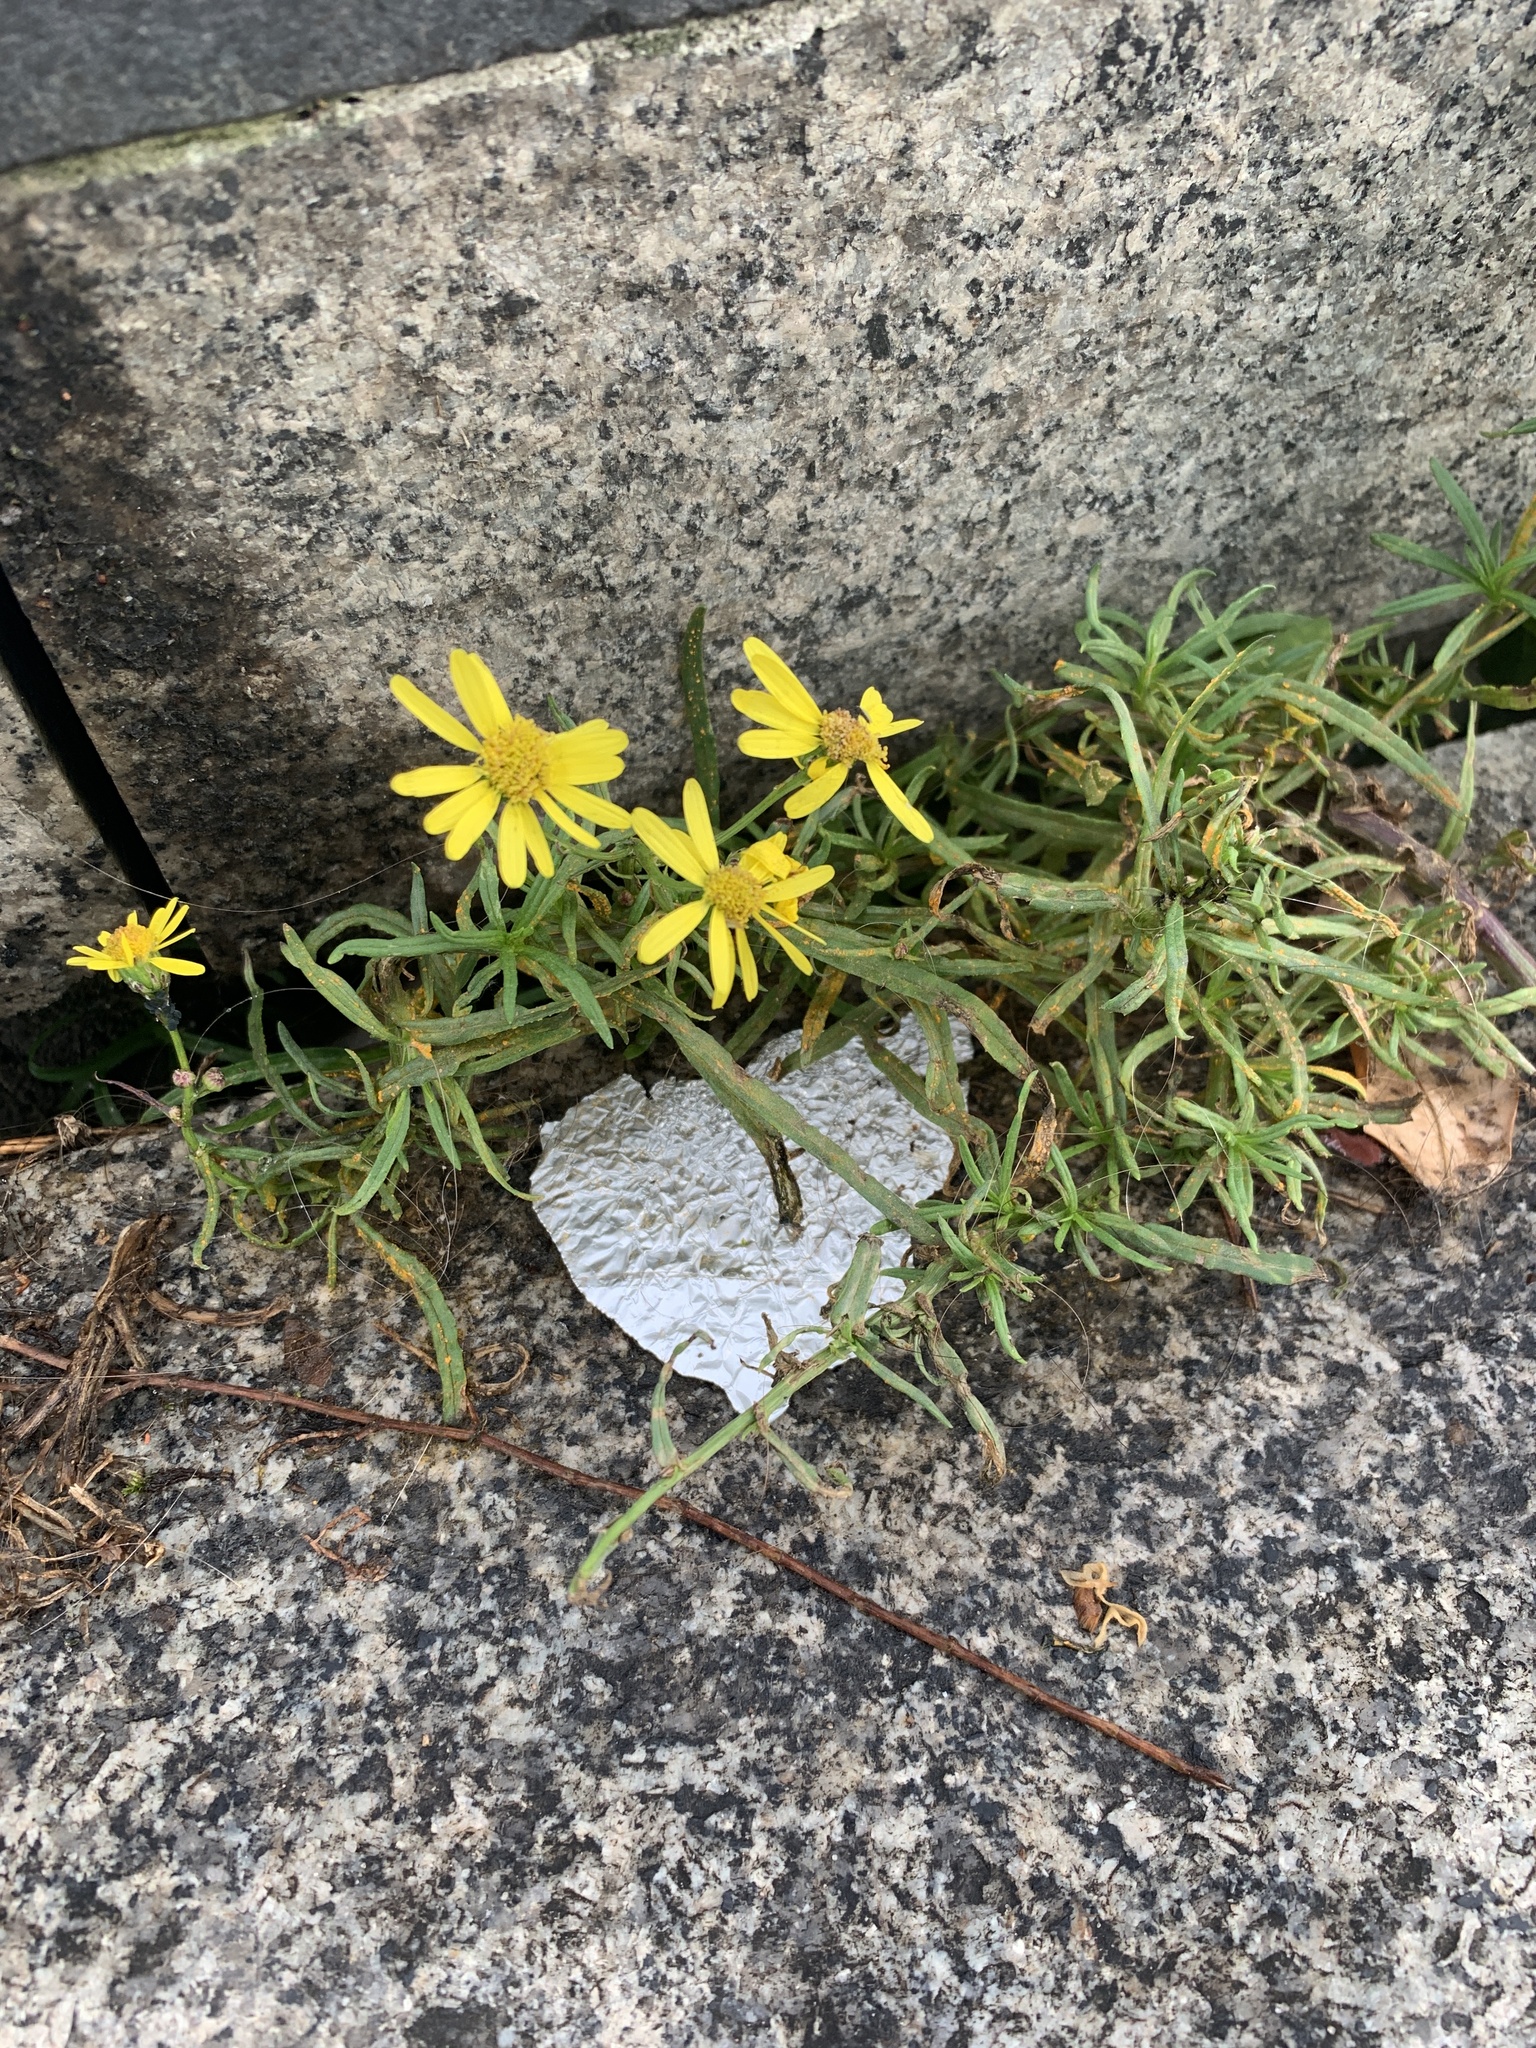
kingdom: Plantae
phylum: Tracheophyta
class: Magnoliopsida
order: Asterales
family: Asteraceae
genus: Senecio
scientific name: Senecio inaequidens
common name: Narrow-leaved ragwort
